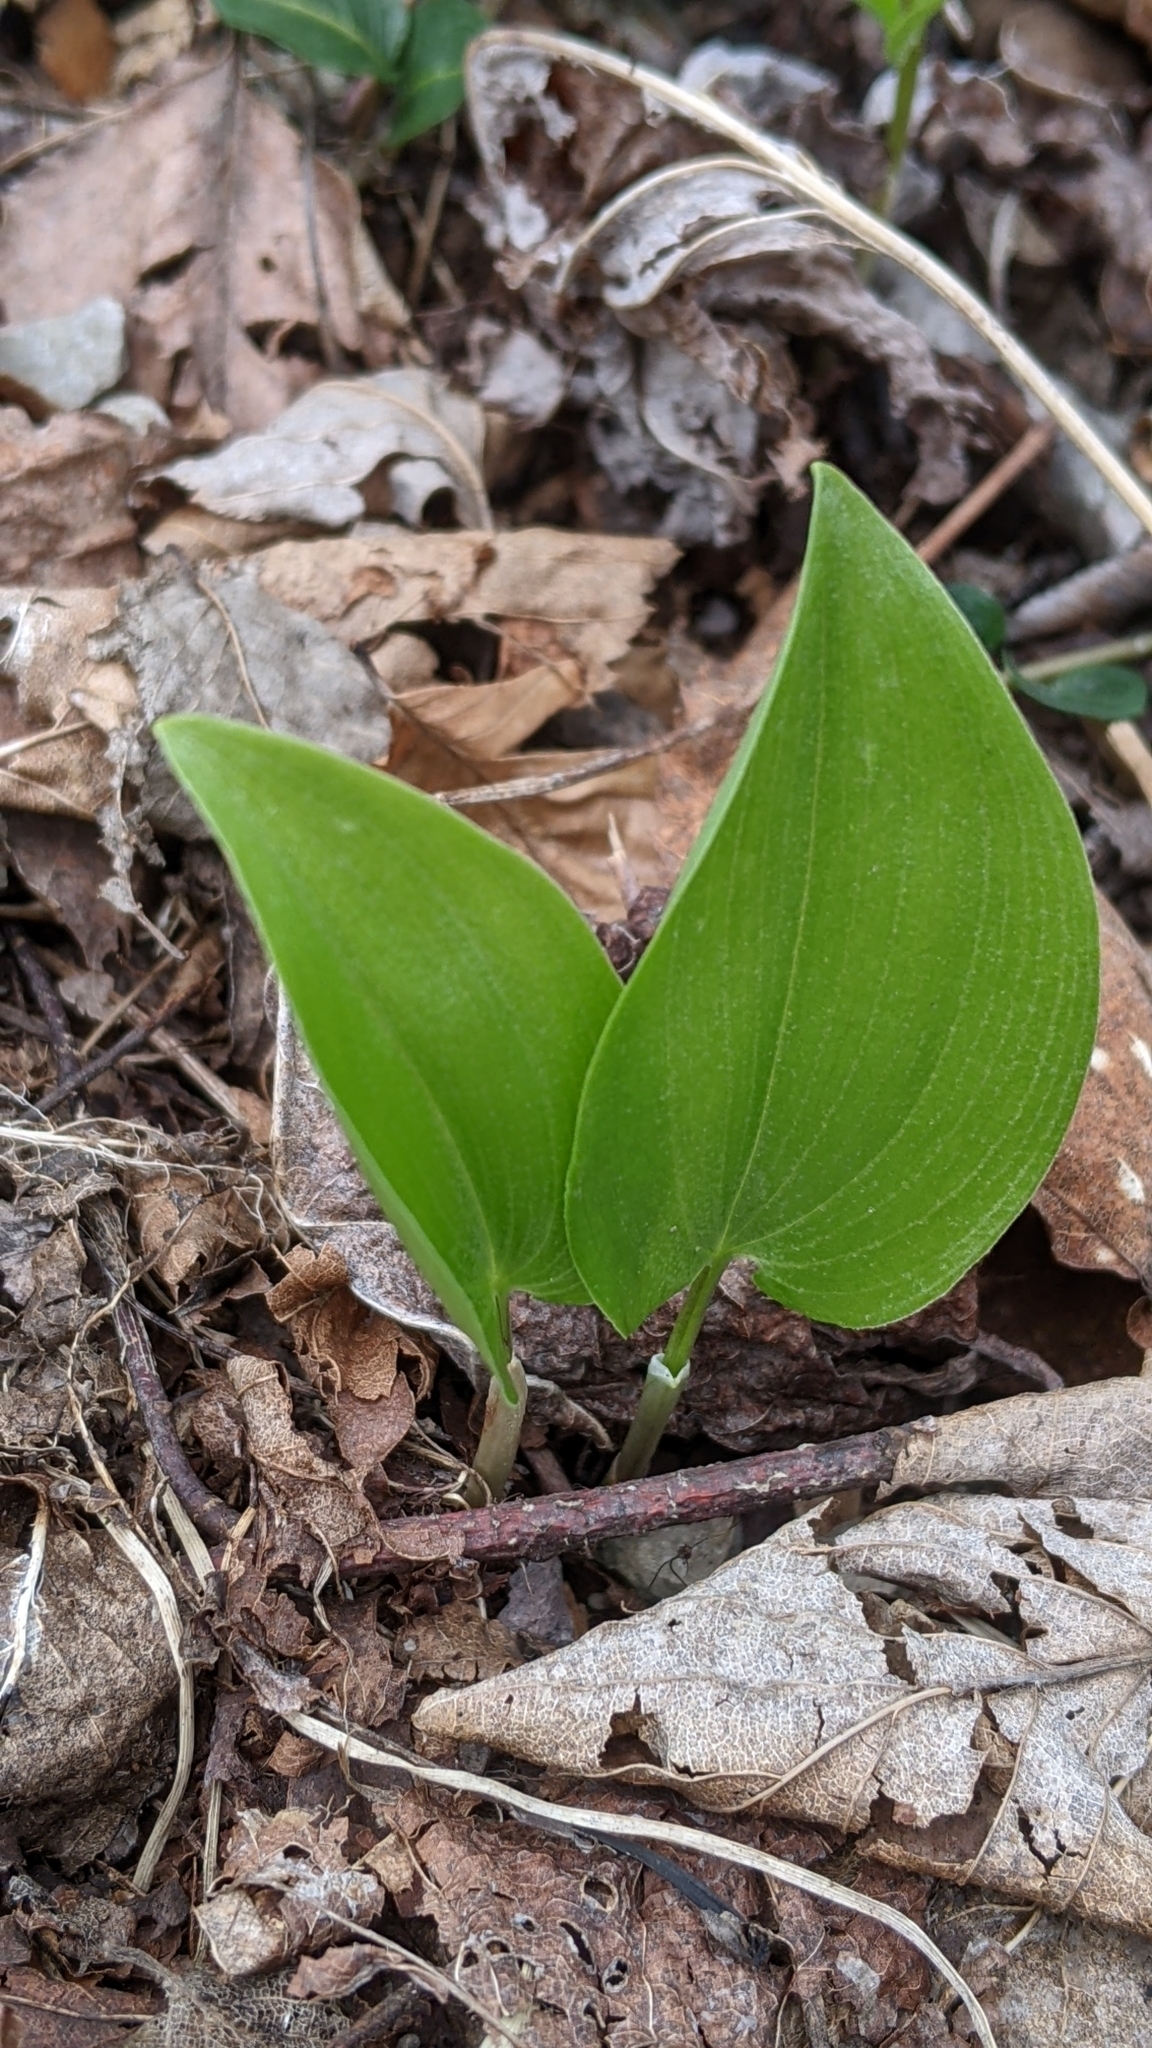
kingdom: Plantae
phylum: Tracheophyta
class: Liliopsida
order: Asparagales
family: Asparagaceae
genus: Maianthemum
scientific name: Maianthemum canadense
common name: False lily-of-the-valley
